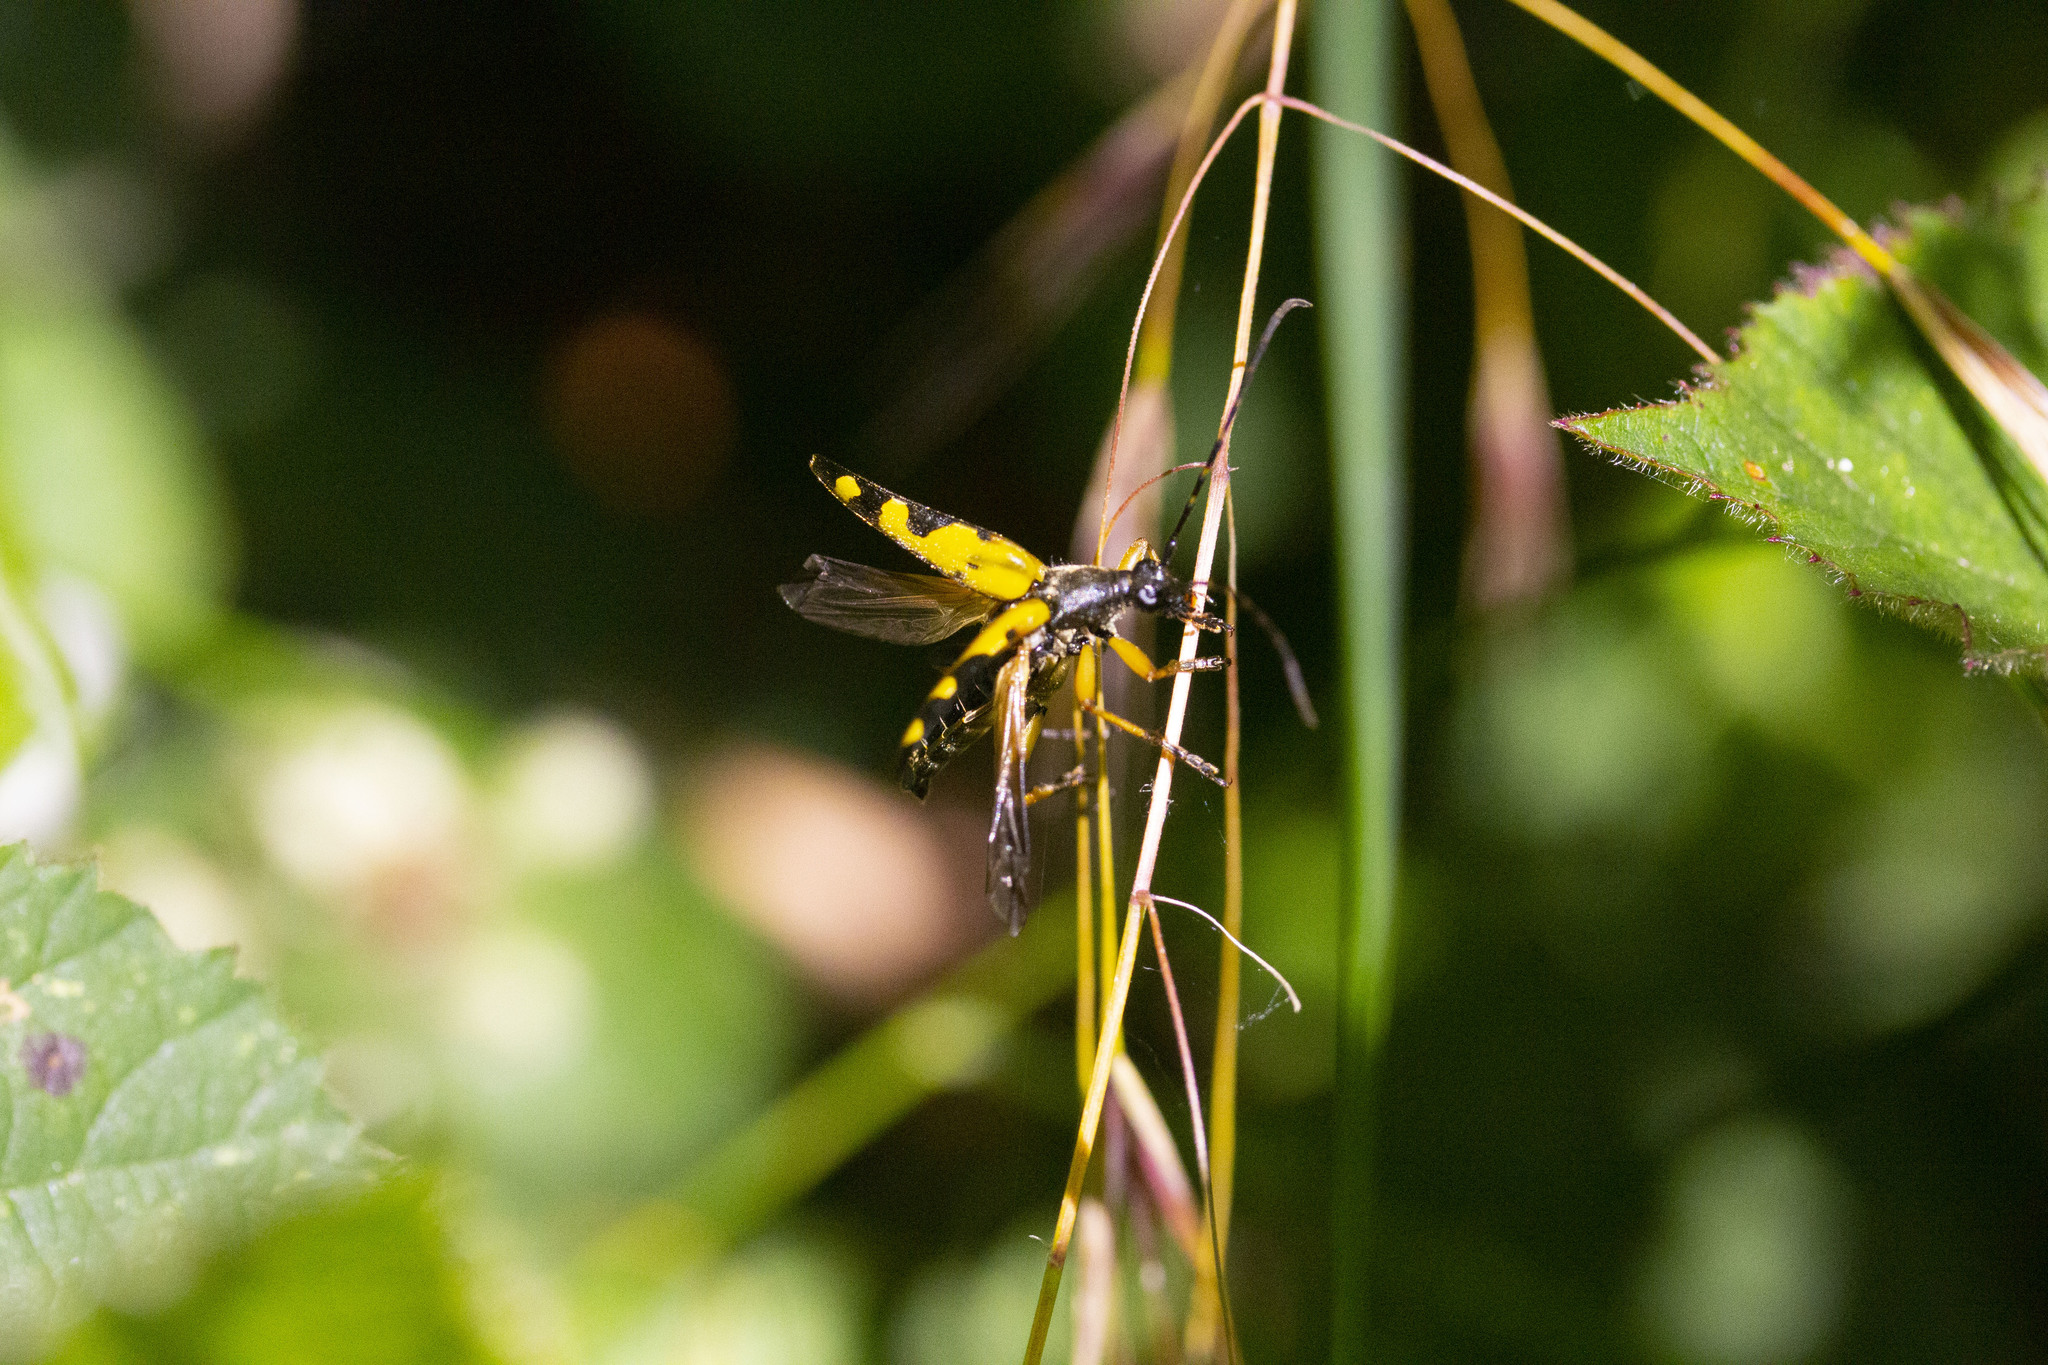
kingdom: Animalia
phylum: Arthropoda
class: Insecta
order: Coleoptera
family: Cerambycidae
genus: Rutpela
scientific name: Rutpela maculata
